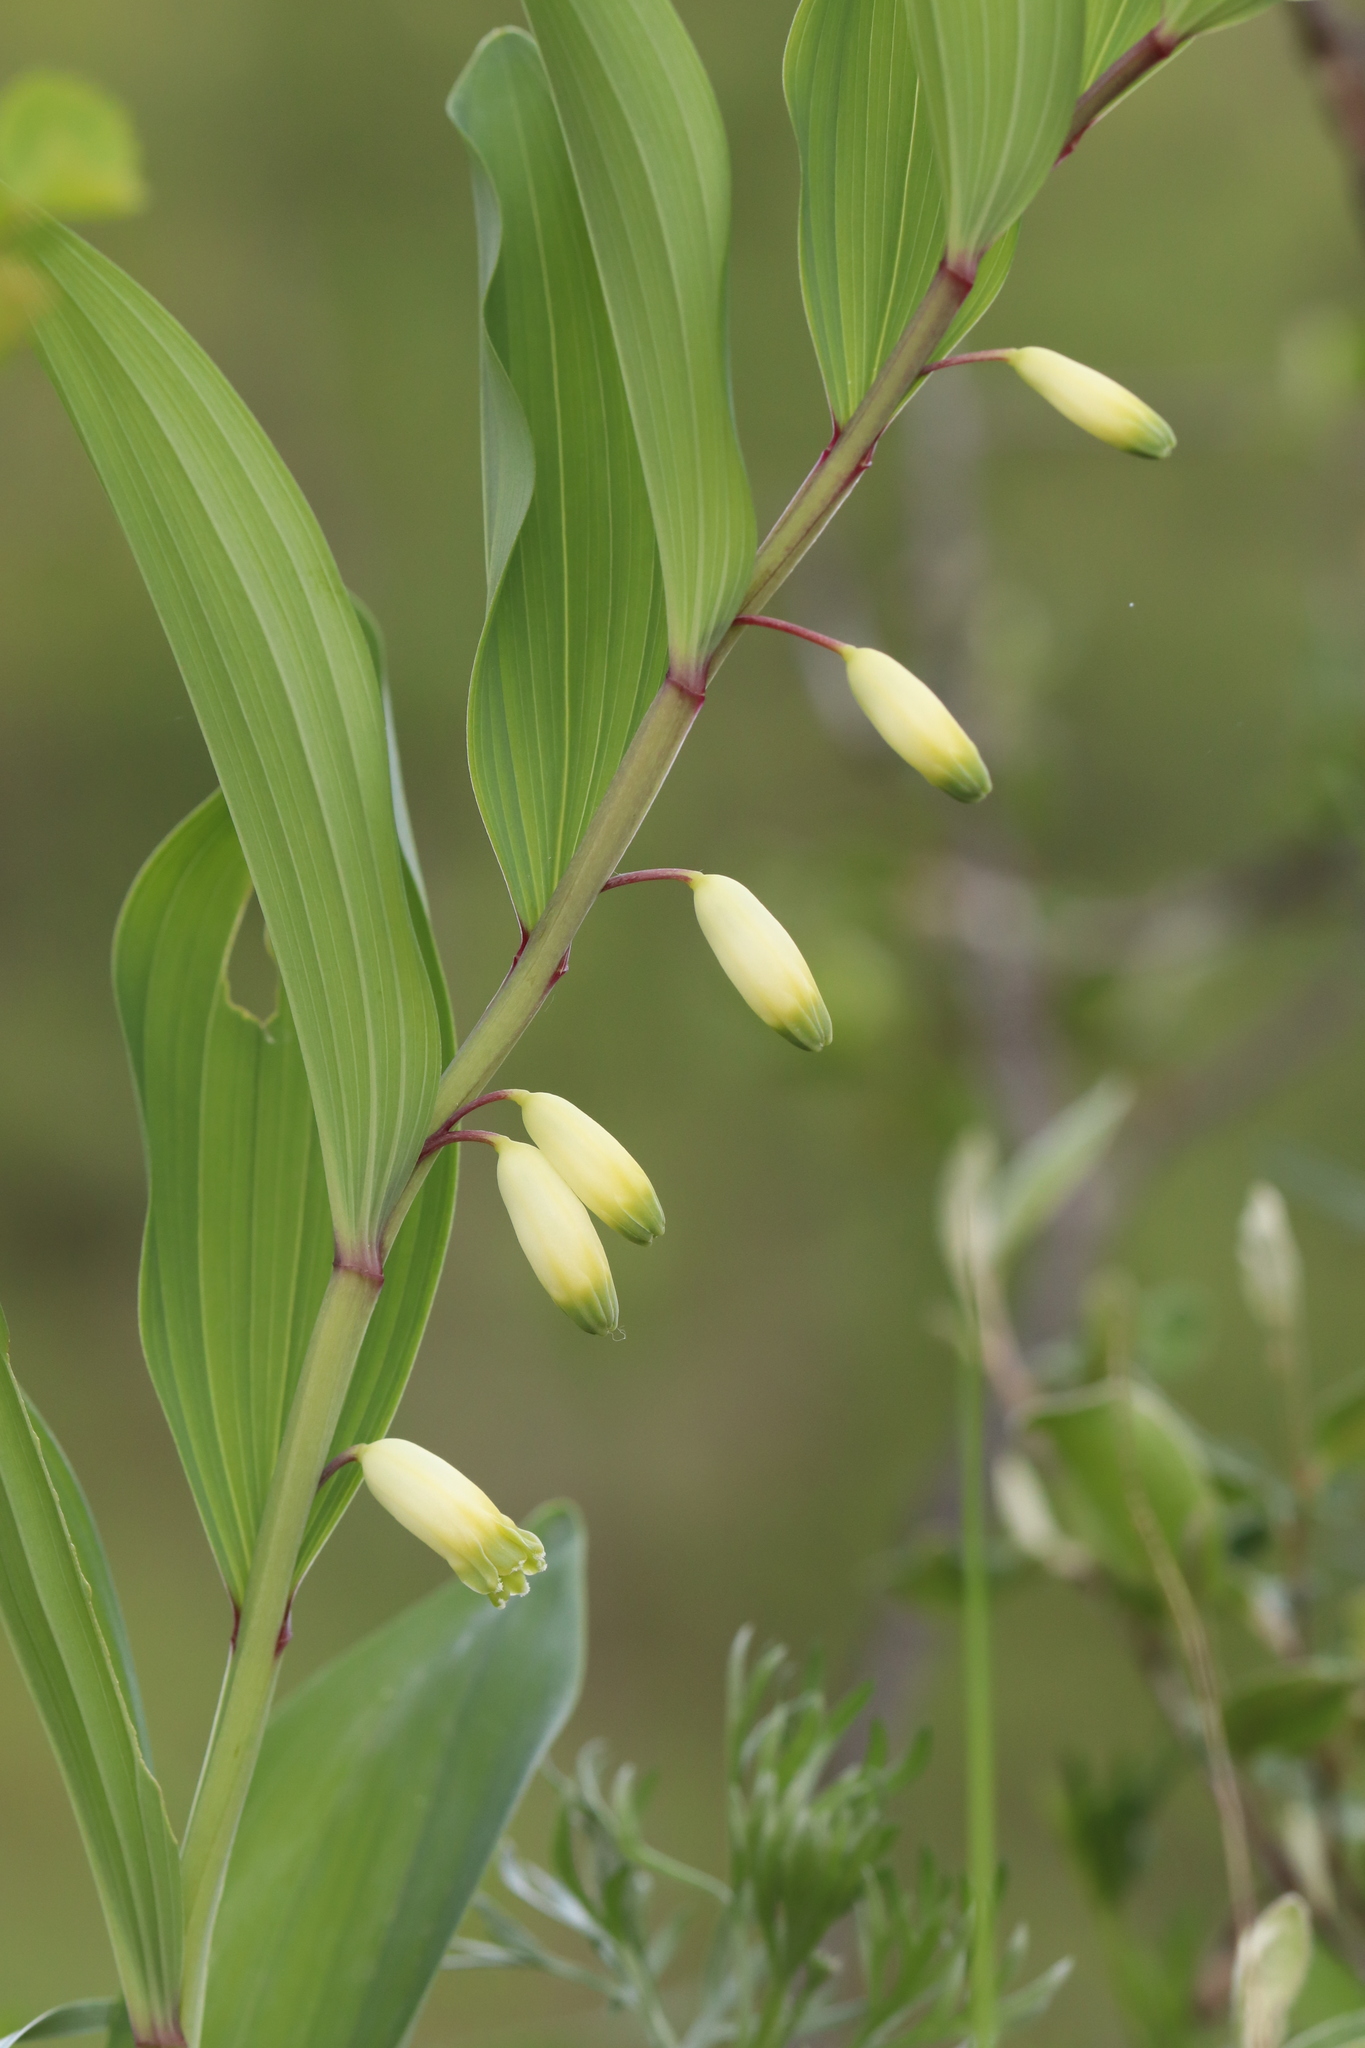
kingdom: Plantae
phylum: Tracheophyta
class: Liliopsida
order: Asparagales
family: Asparagaceae
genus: Polygonatum
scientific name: Polygonatum odoratum
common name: Angular solomon's-seal
